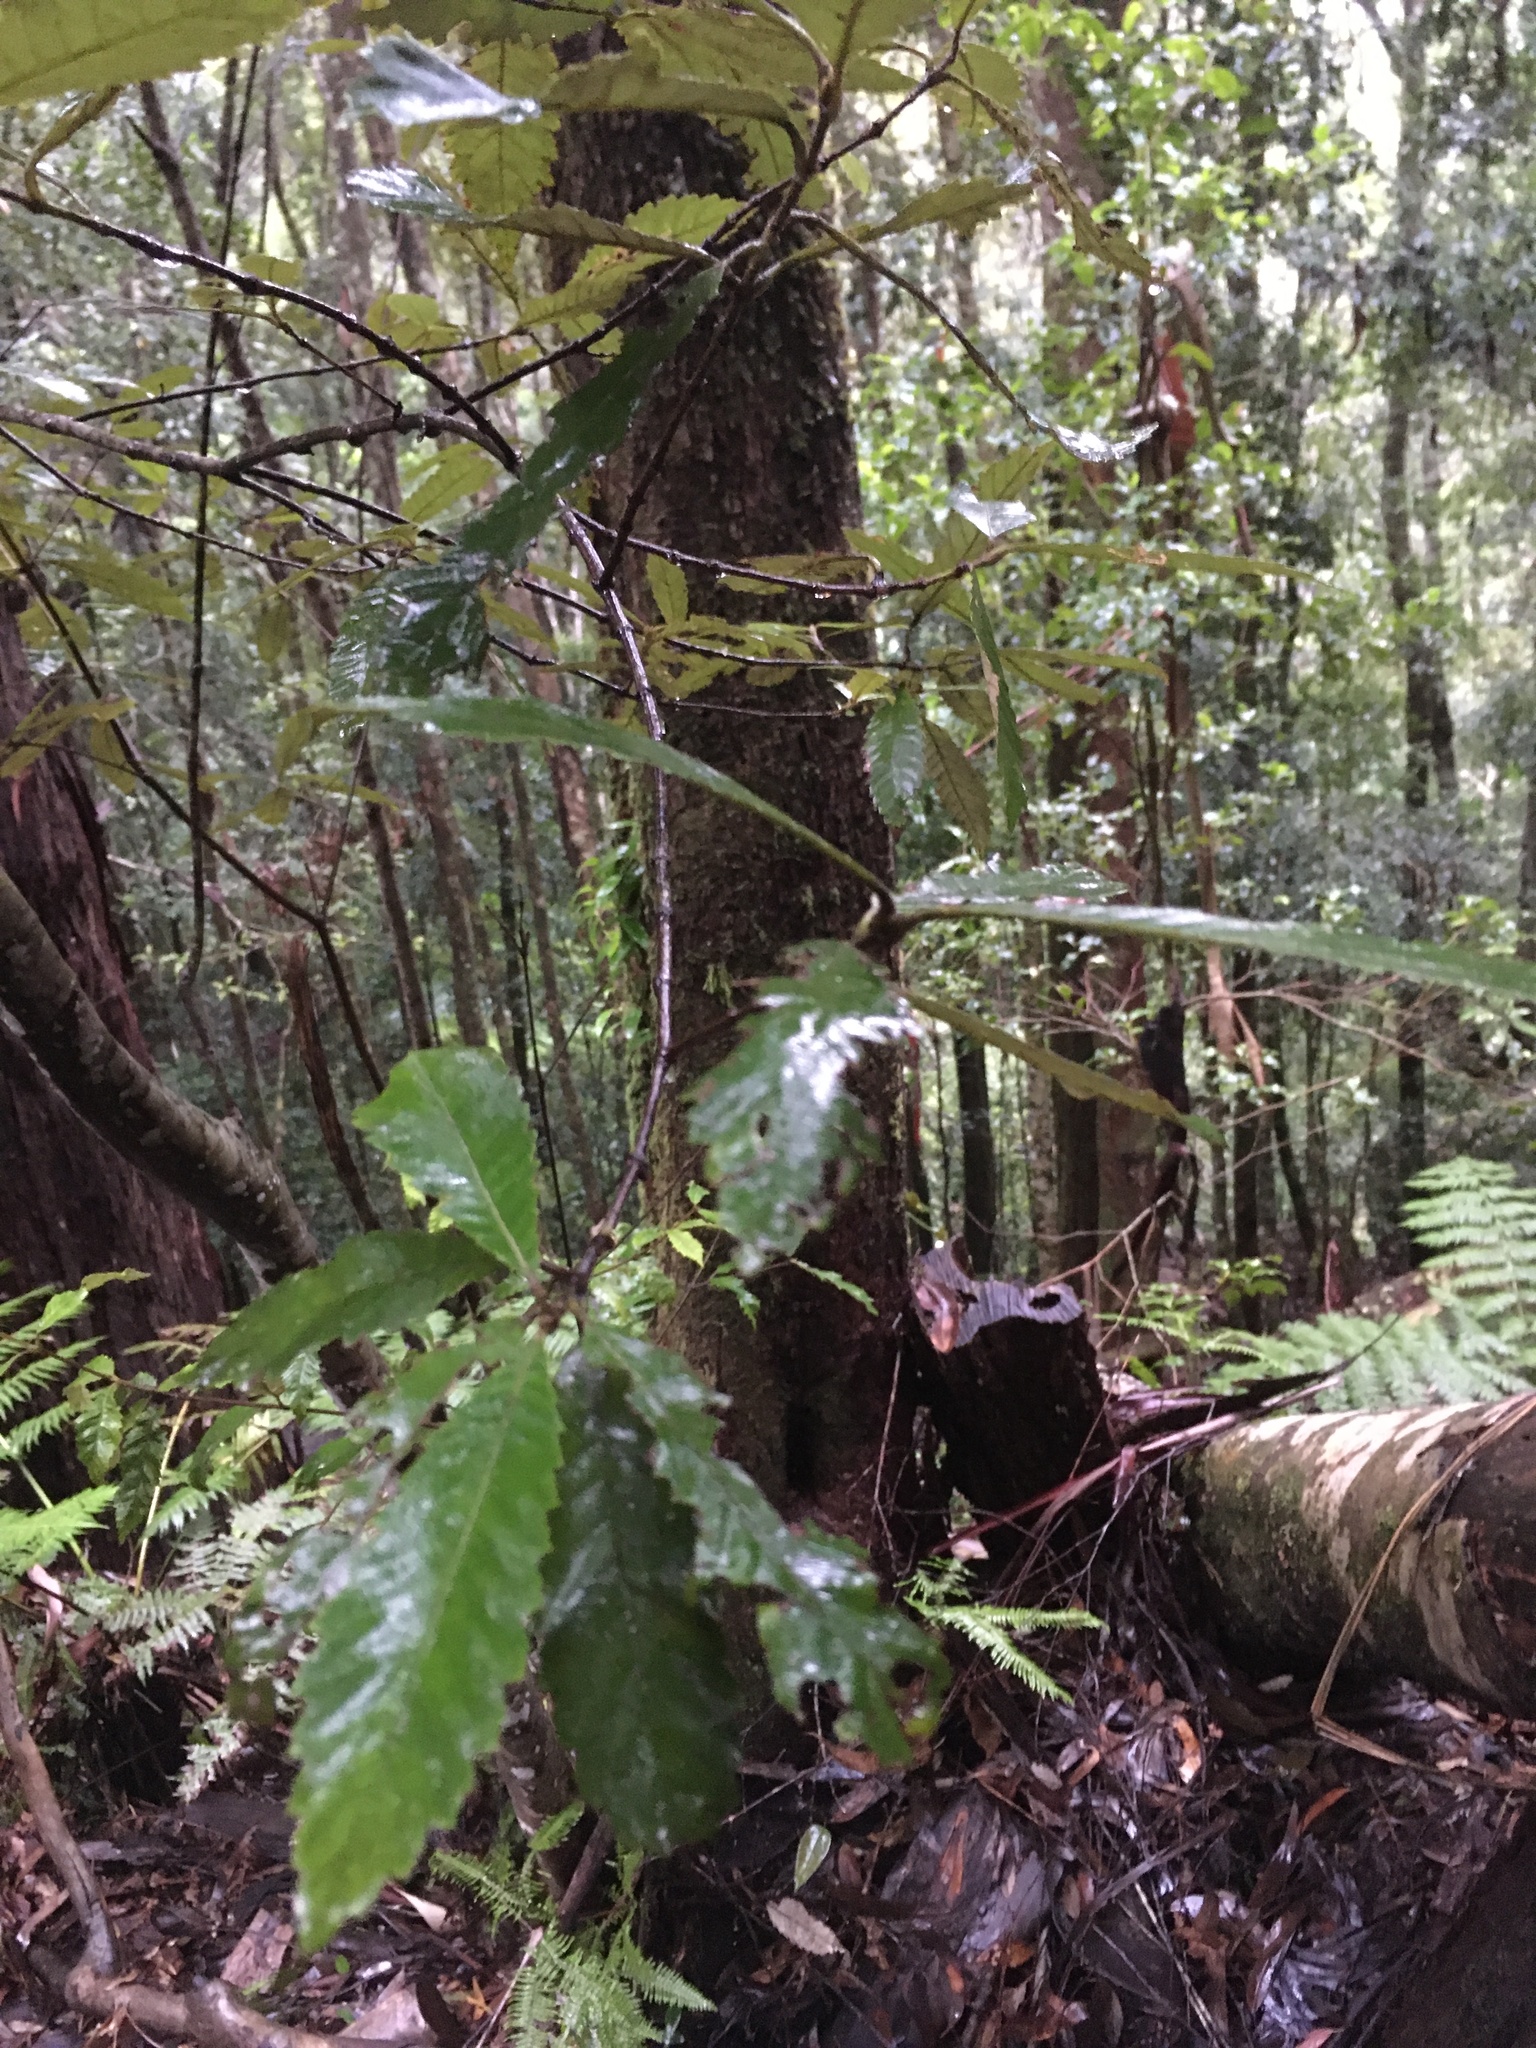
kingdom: Plantae
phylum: Tracheophyta
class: Magnoliopsida
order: Oxalidales
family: Cunoniaceae
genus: Callicoma
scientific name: Callicoma serratifolia
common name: Black wattle
